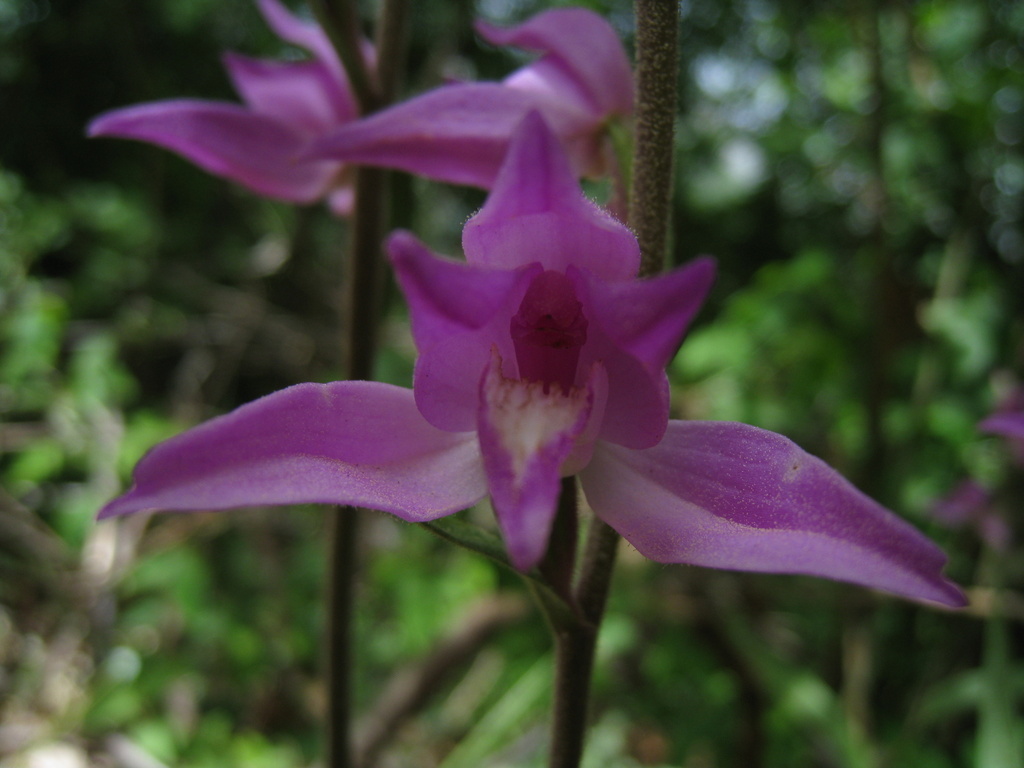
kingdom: Plantae
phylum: Tracheophyta
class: Liliopsida
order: Asparagales
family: Orchidaceae
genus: Cephalanthera
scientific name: Cephalanthera rubra
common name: Red helleborine
